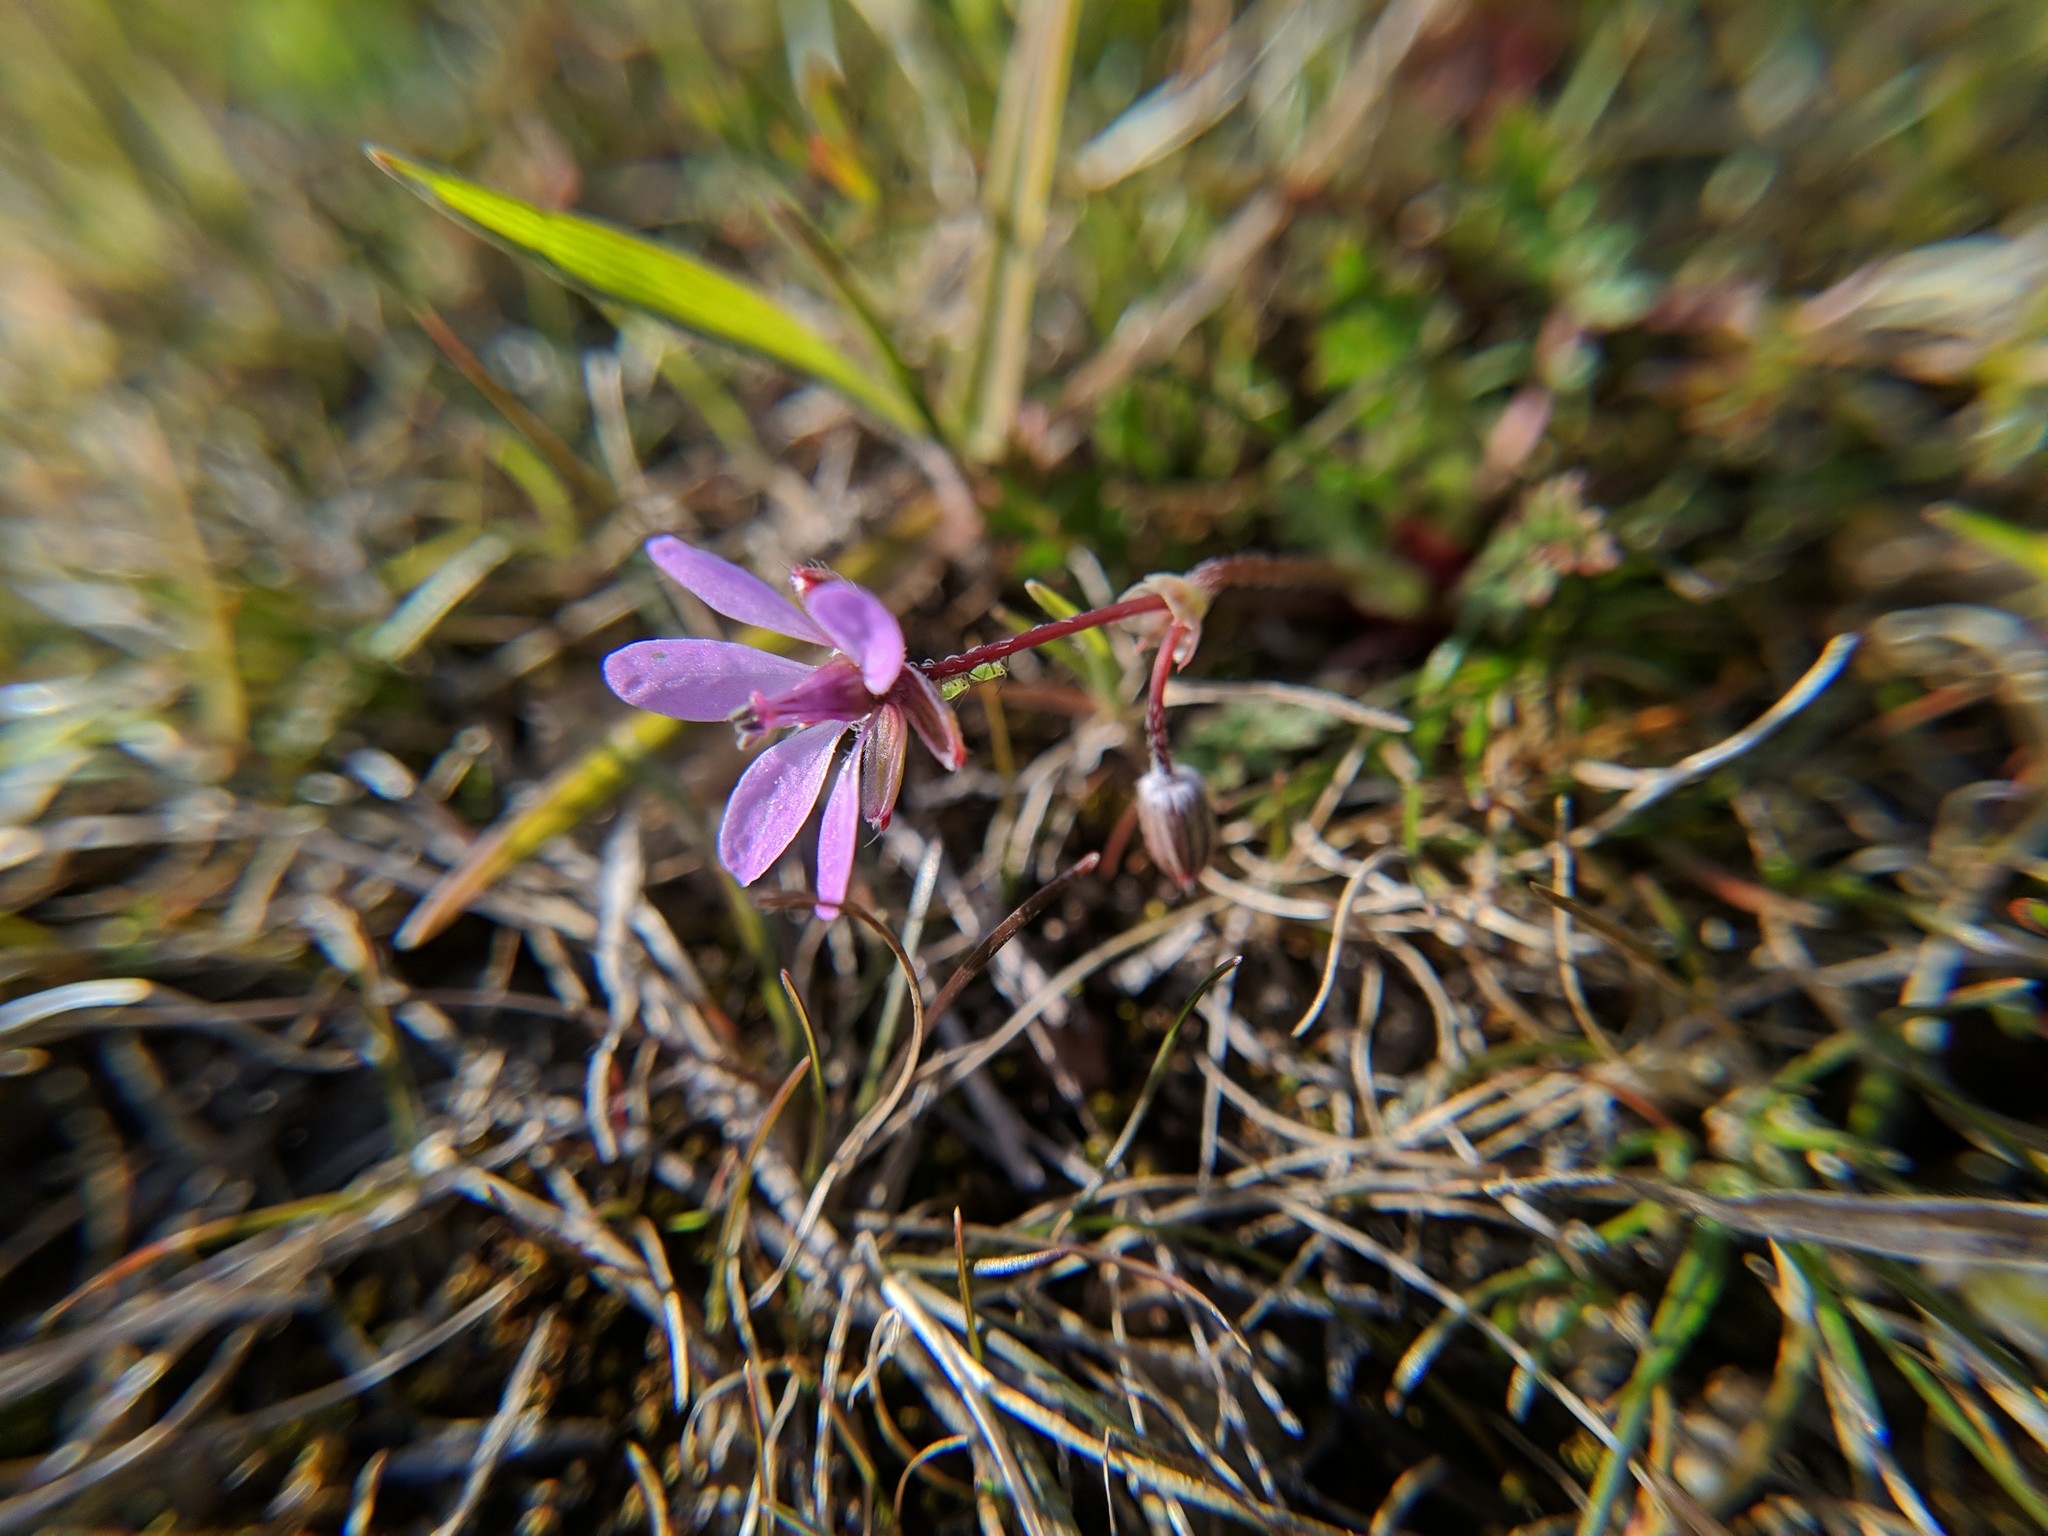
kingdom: Plantae
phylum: Tracheophyta
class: Magnoliopsida
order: Geraniales
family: Geraniaceae
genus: Erodium
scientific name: Erodium cicutarium
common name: Common stork's-bill
